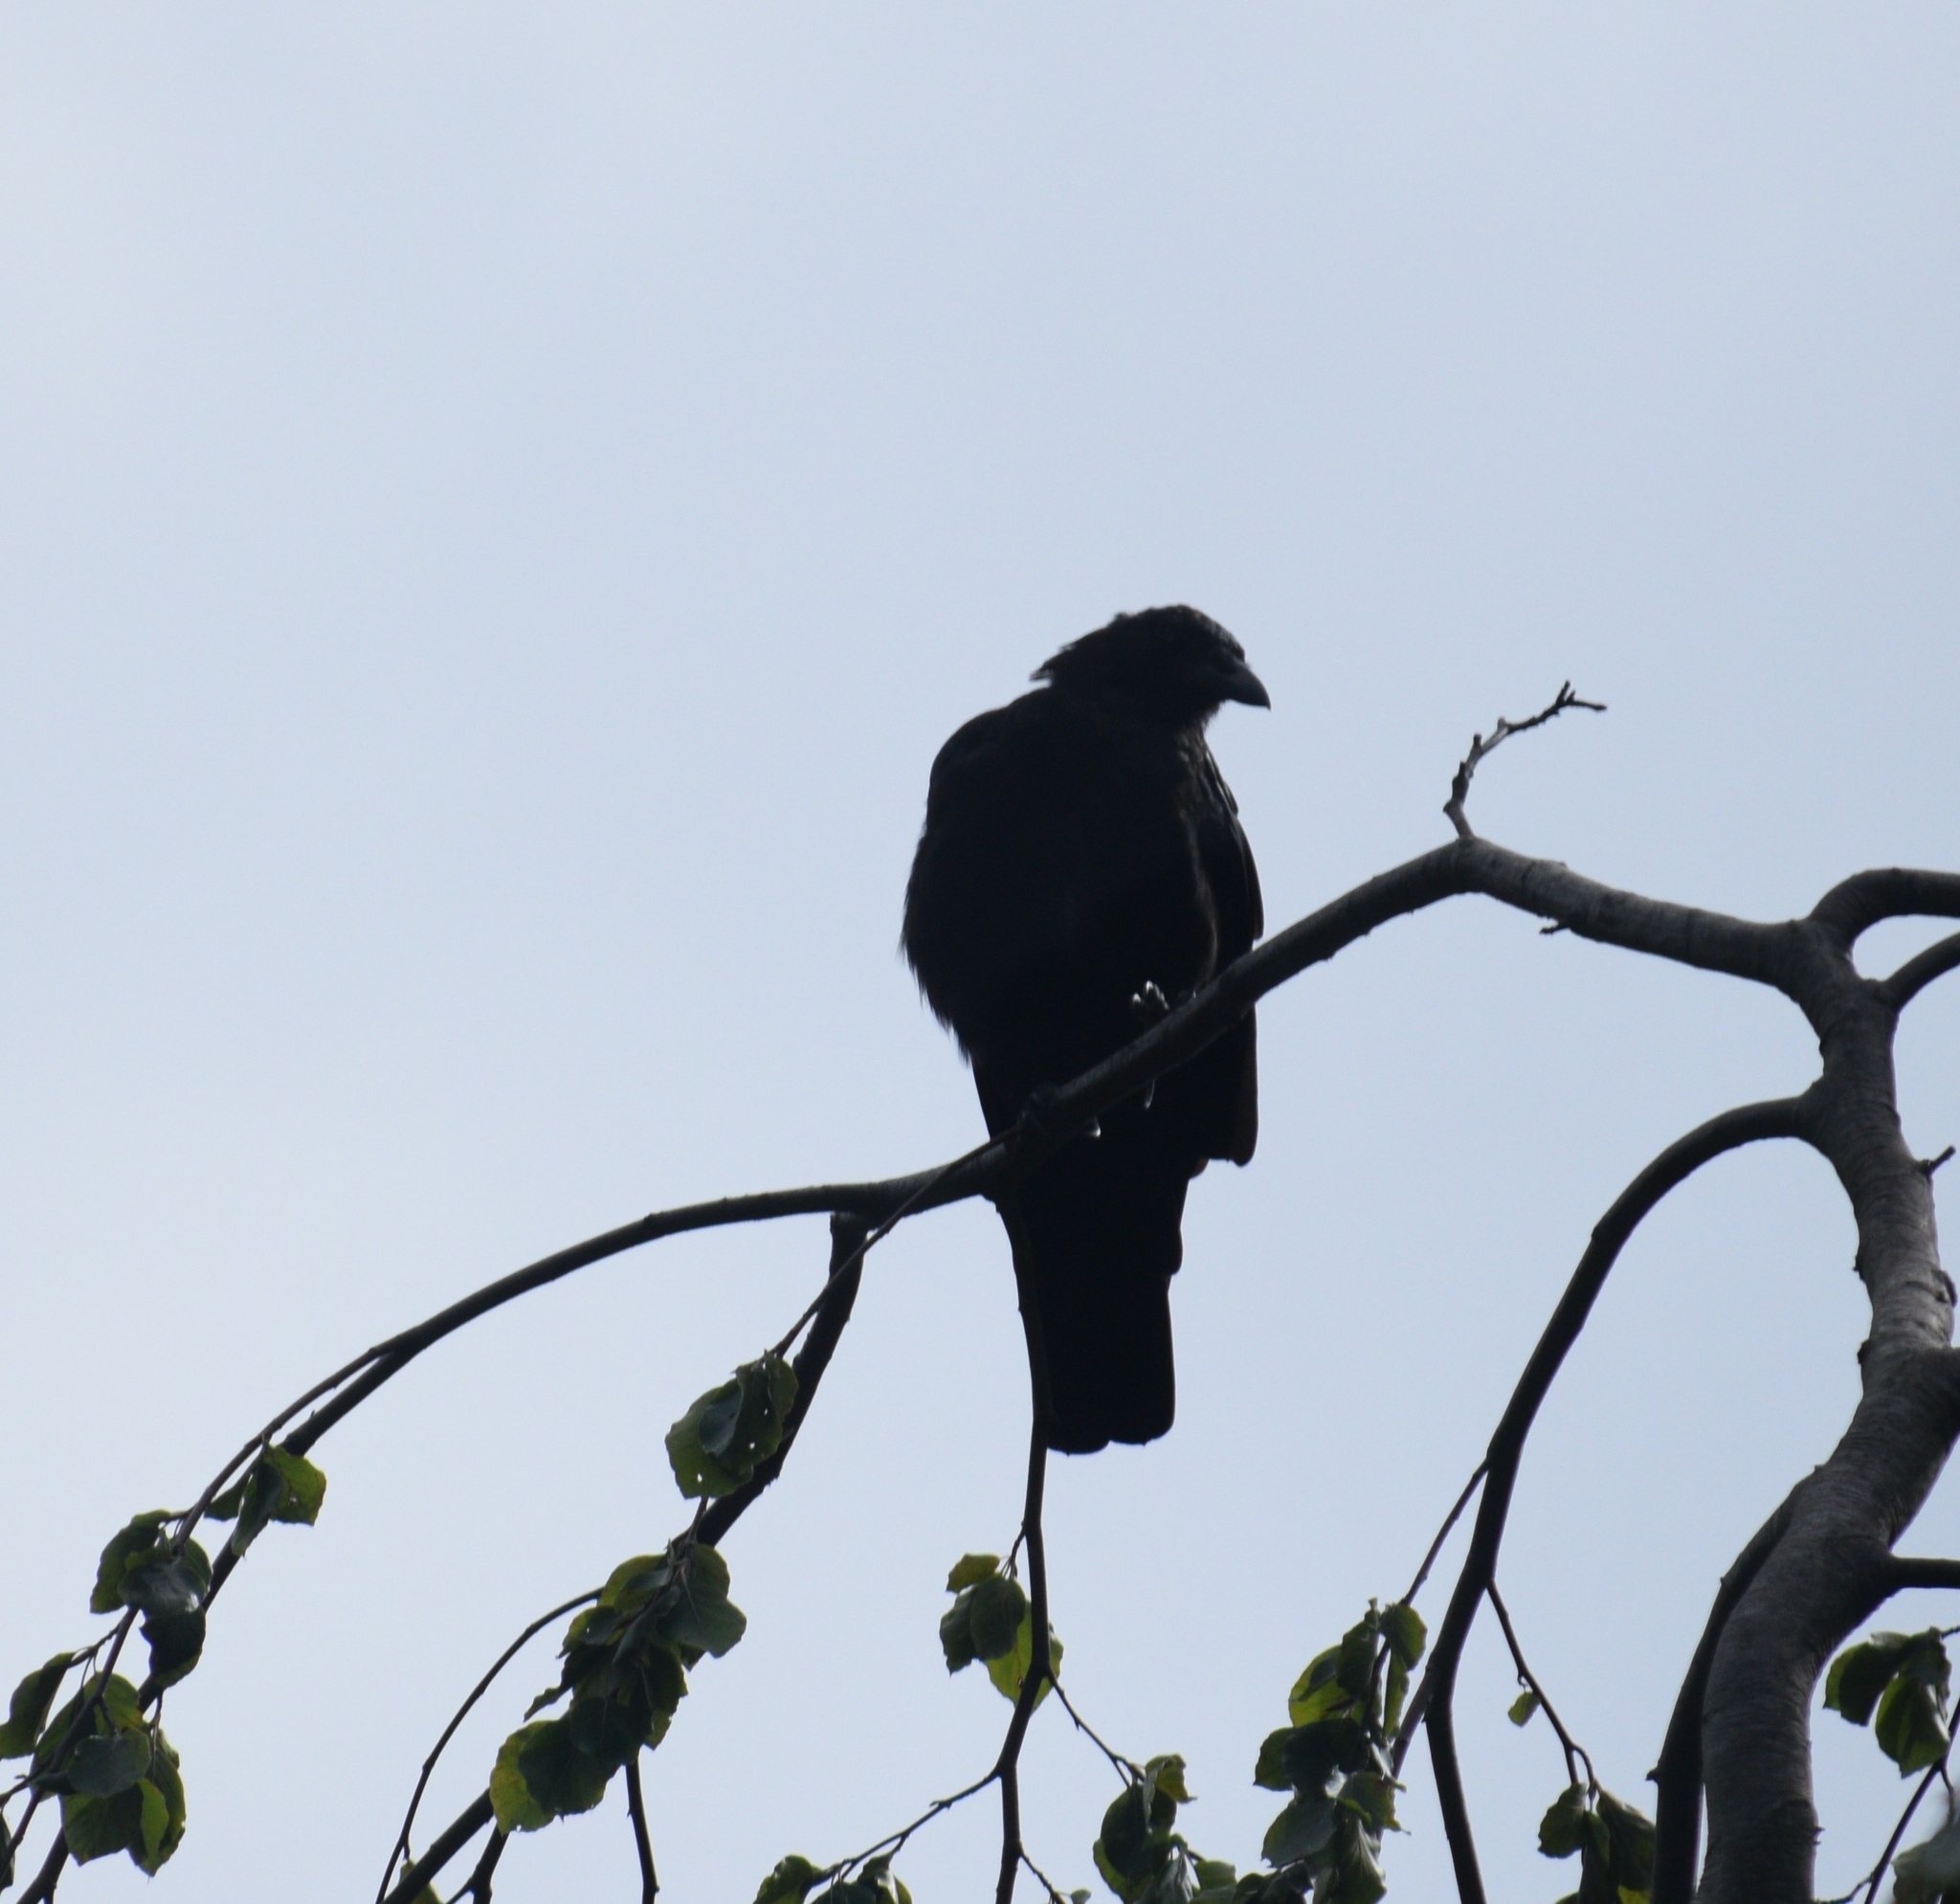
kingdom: Animalia
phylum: Chordata
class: Aves
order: Passeriformes
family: Corvidae
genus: Corvus
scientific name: Corvus brachyrhynchos
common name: American crow
